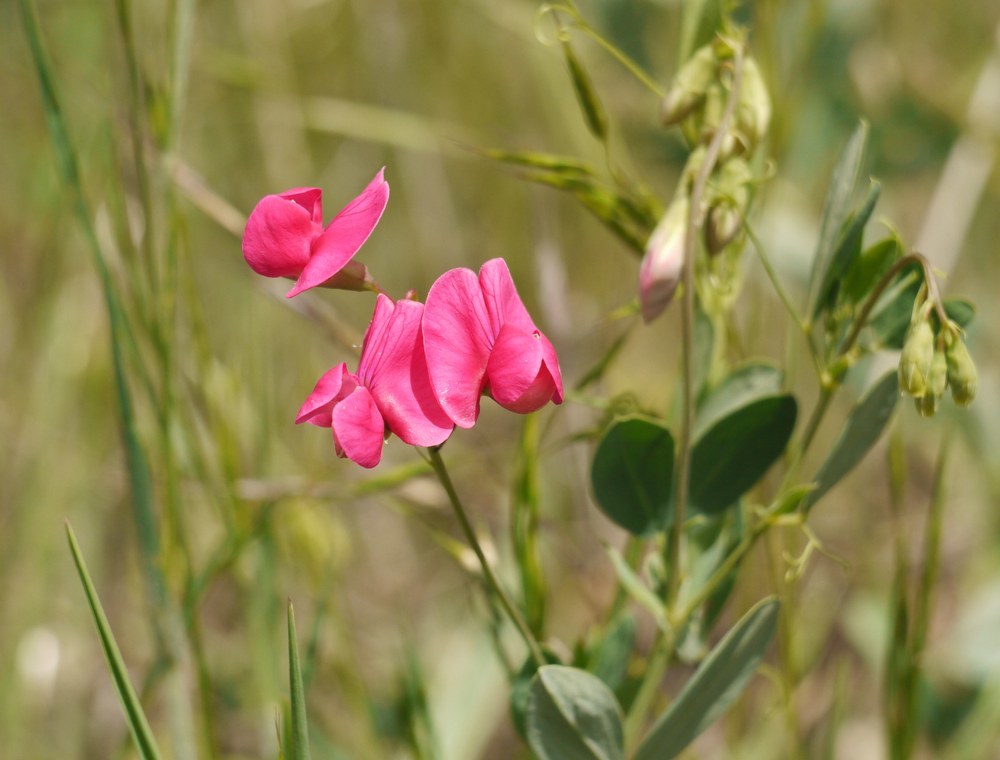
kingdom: Plantae
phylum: Tracheophyta
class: Magnoliopsida
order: Fabales
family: Fabaceae
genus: Lathyrus
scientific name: Lathyrus tuberosus
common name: Tuberous pea
